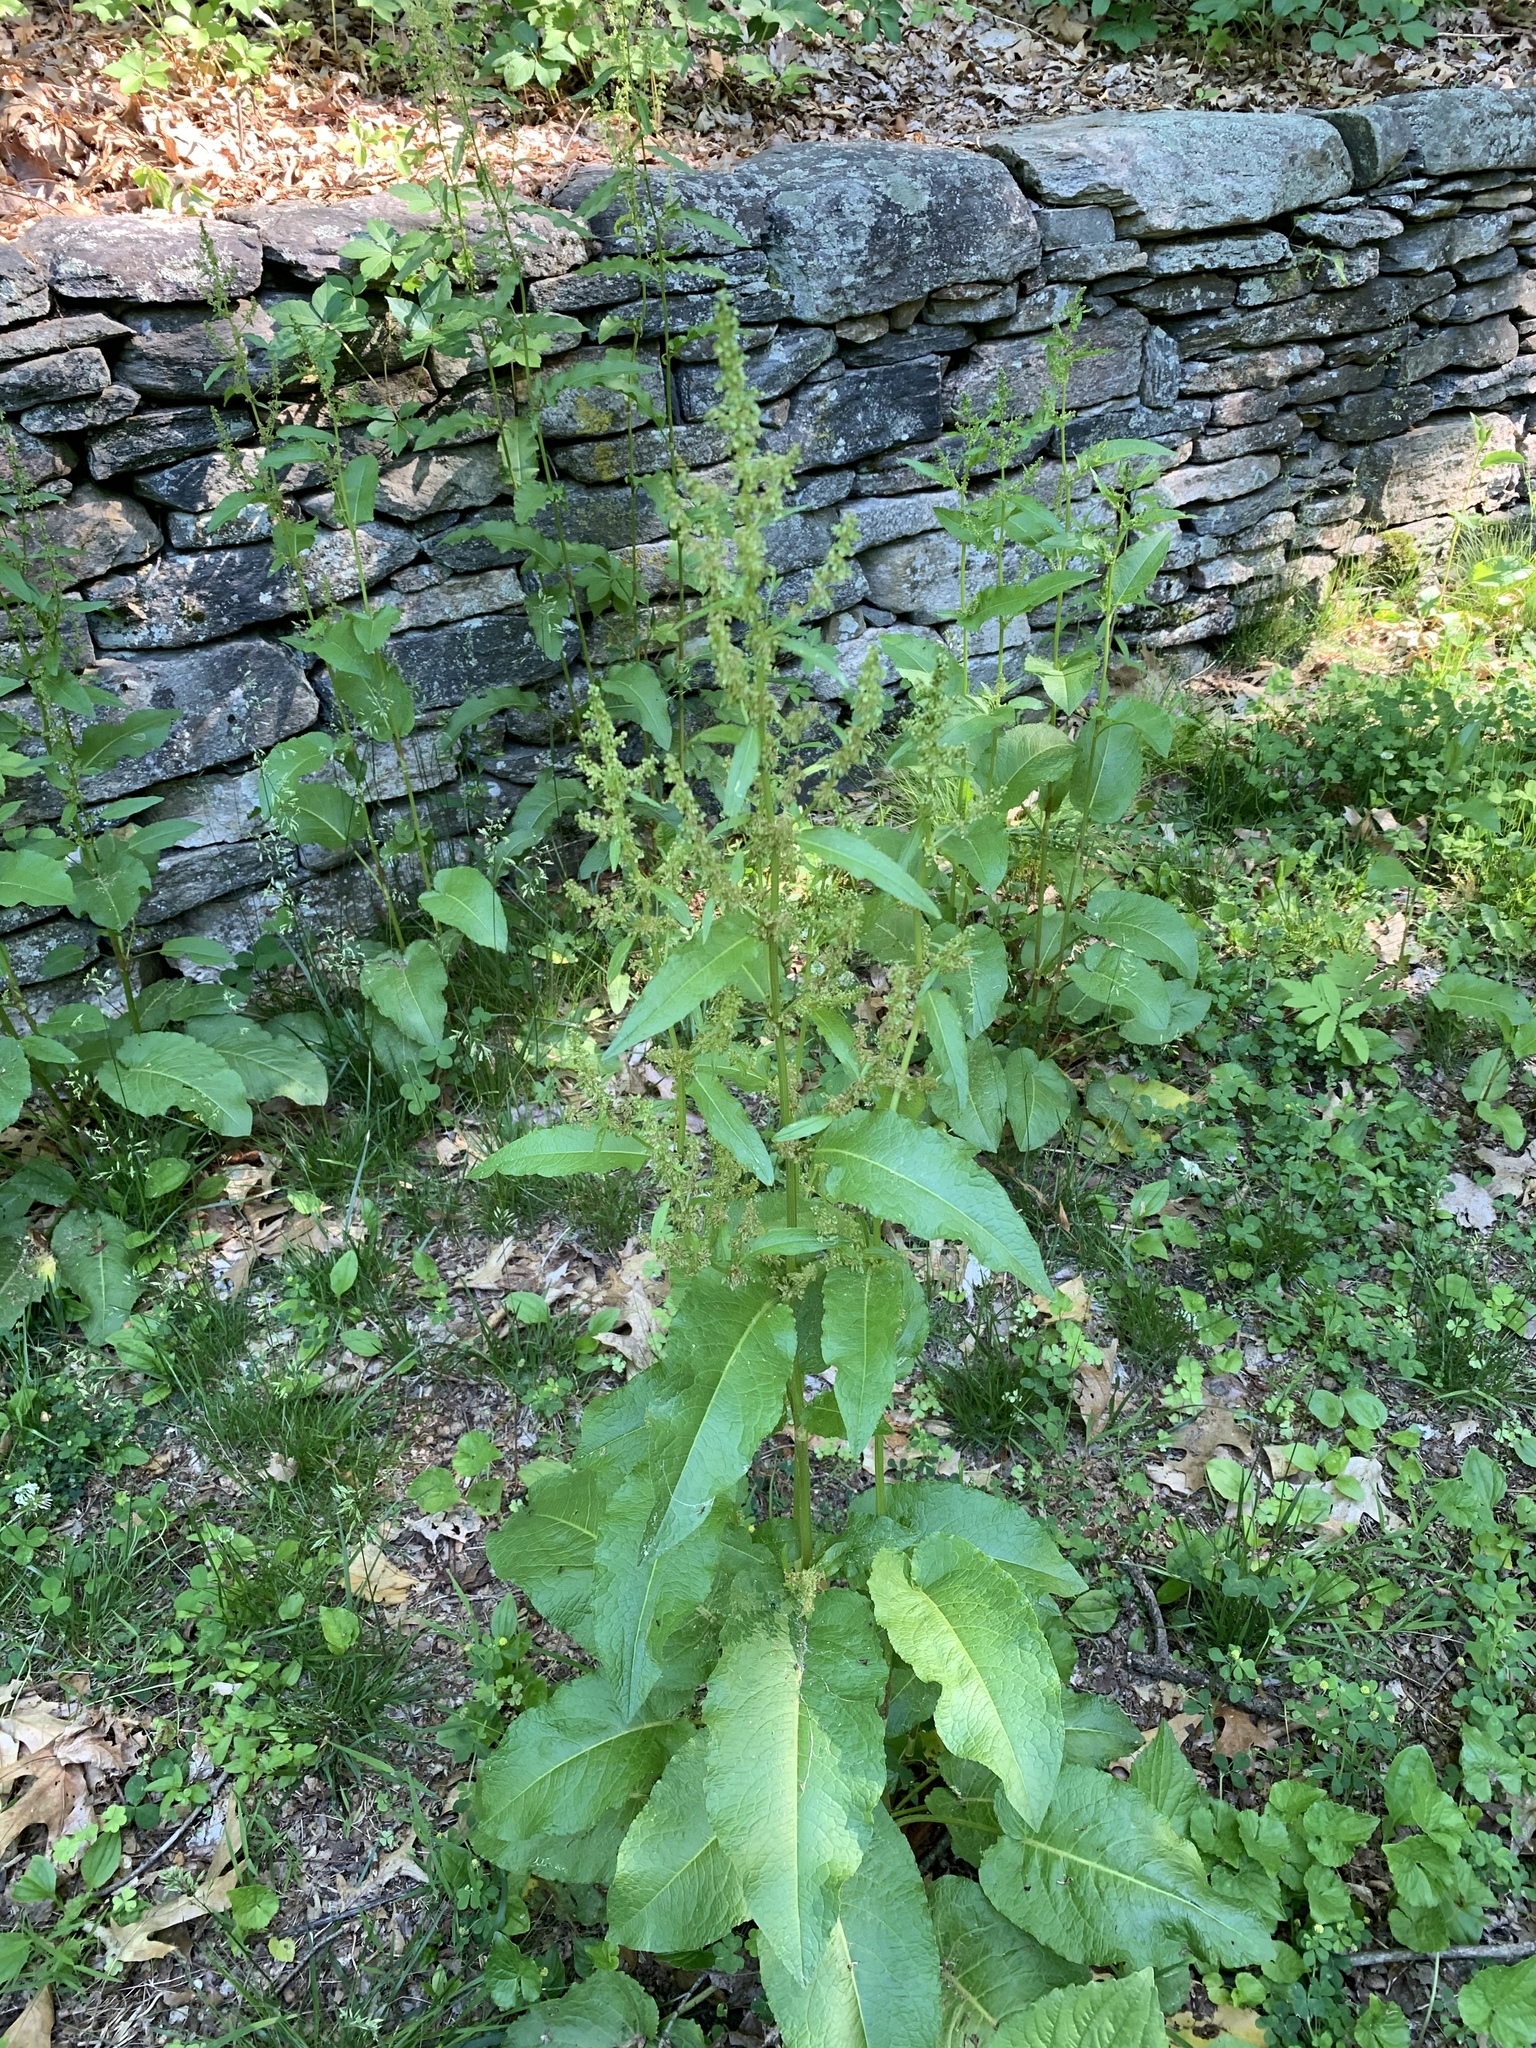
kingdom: Plantae
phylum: Tracheophyta
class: Magnoliopsida
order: Caryophyllales
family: Polygonaceae
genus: Rumex
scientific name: Rumex obtusifolius
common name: Bitter dock
